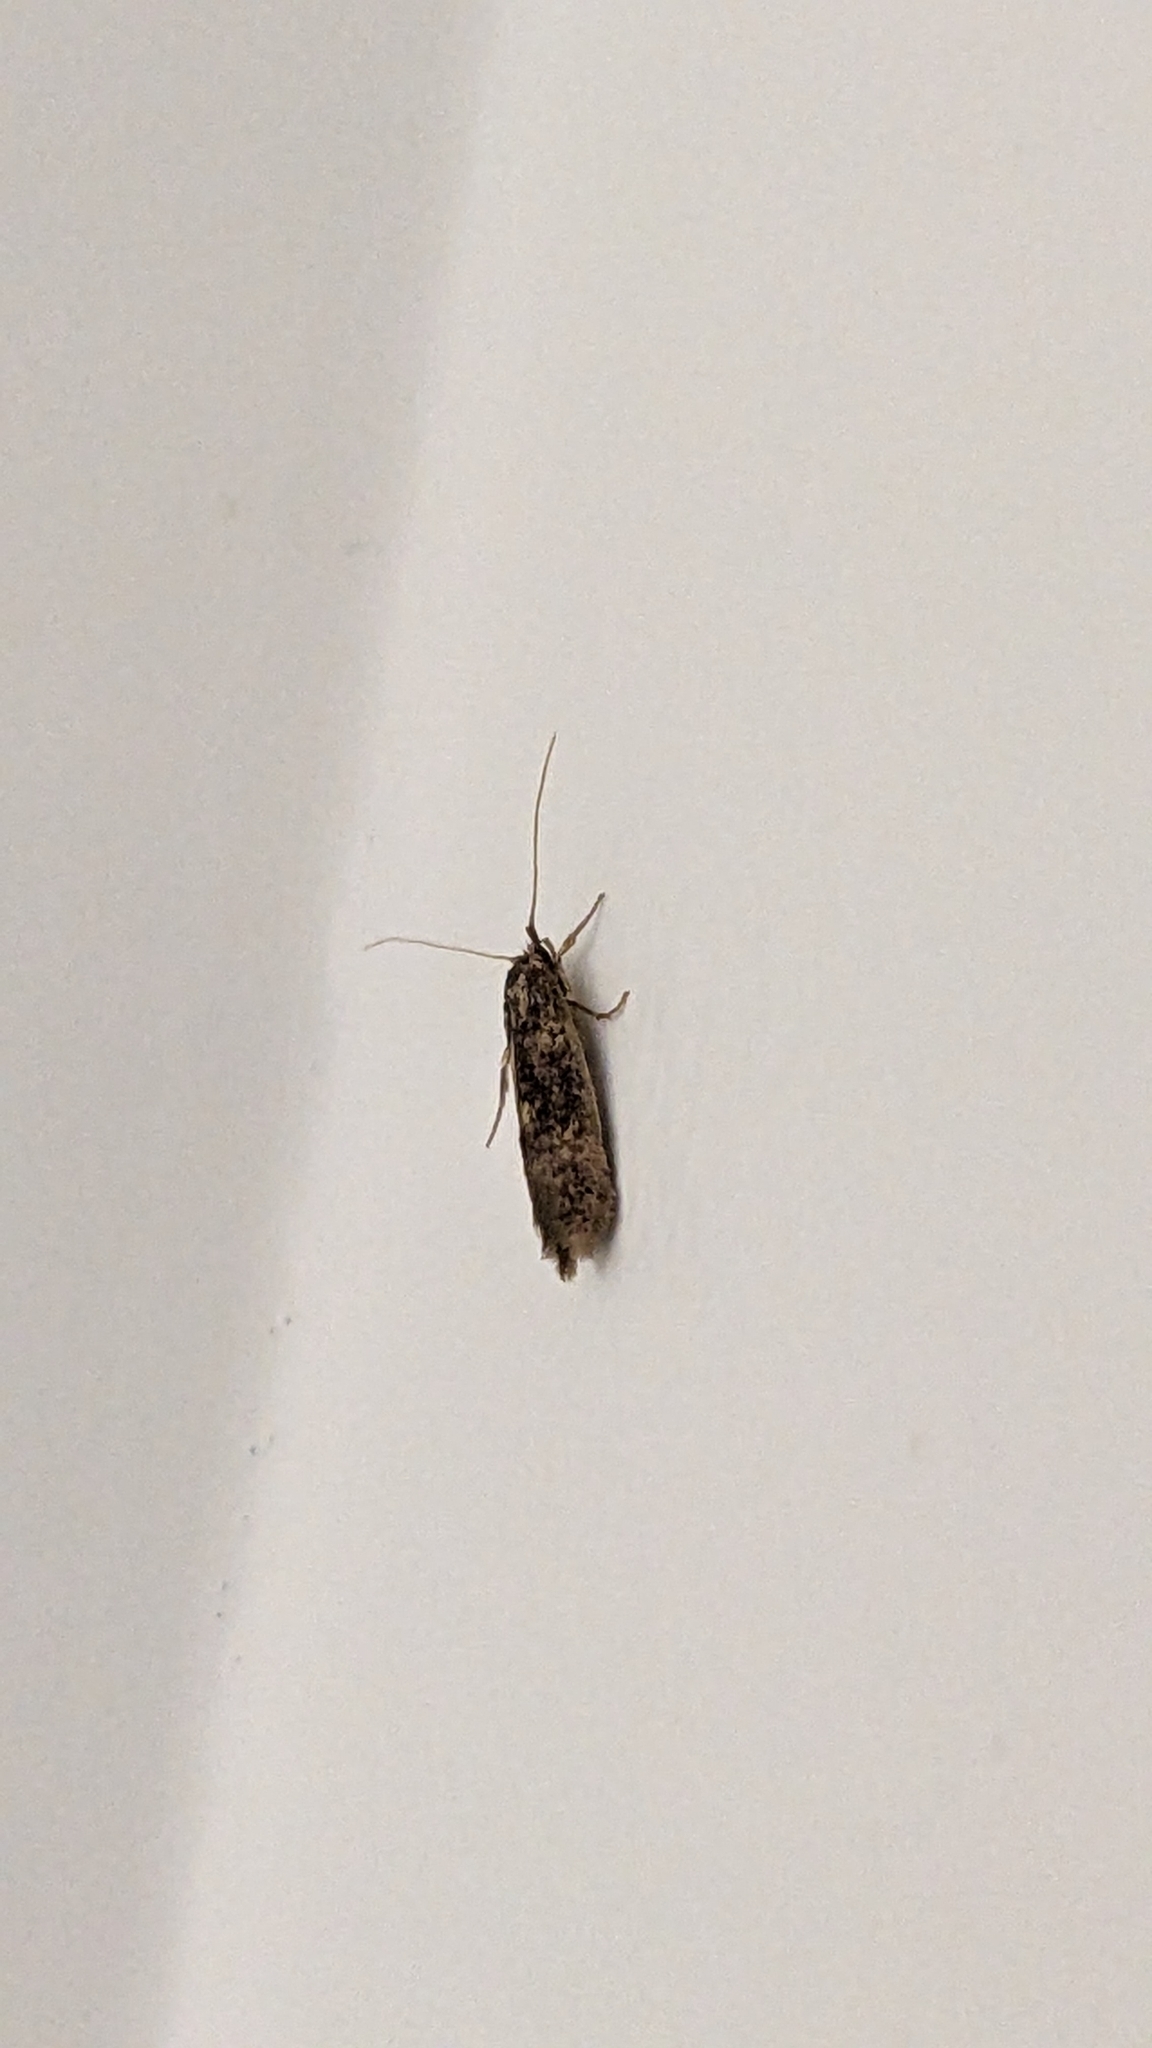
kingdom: Animalia
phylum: Arthropoda
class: Insecta
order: Lepidoptera
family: Tineidae
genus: Opogona
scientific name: Opogona omoscopa
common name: Moth
